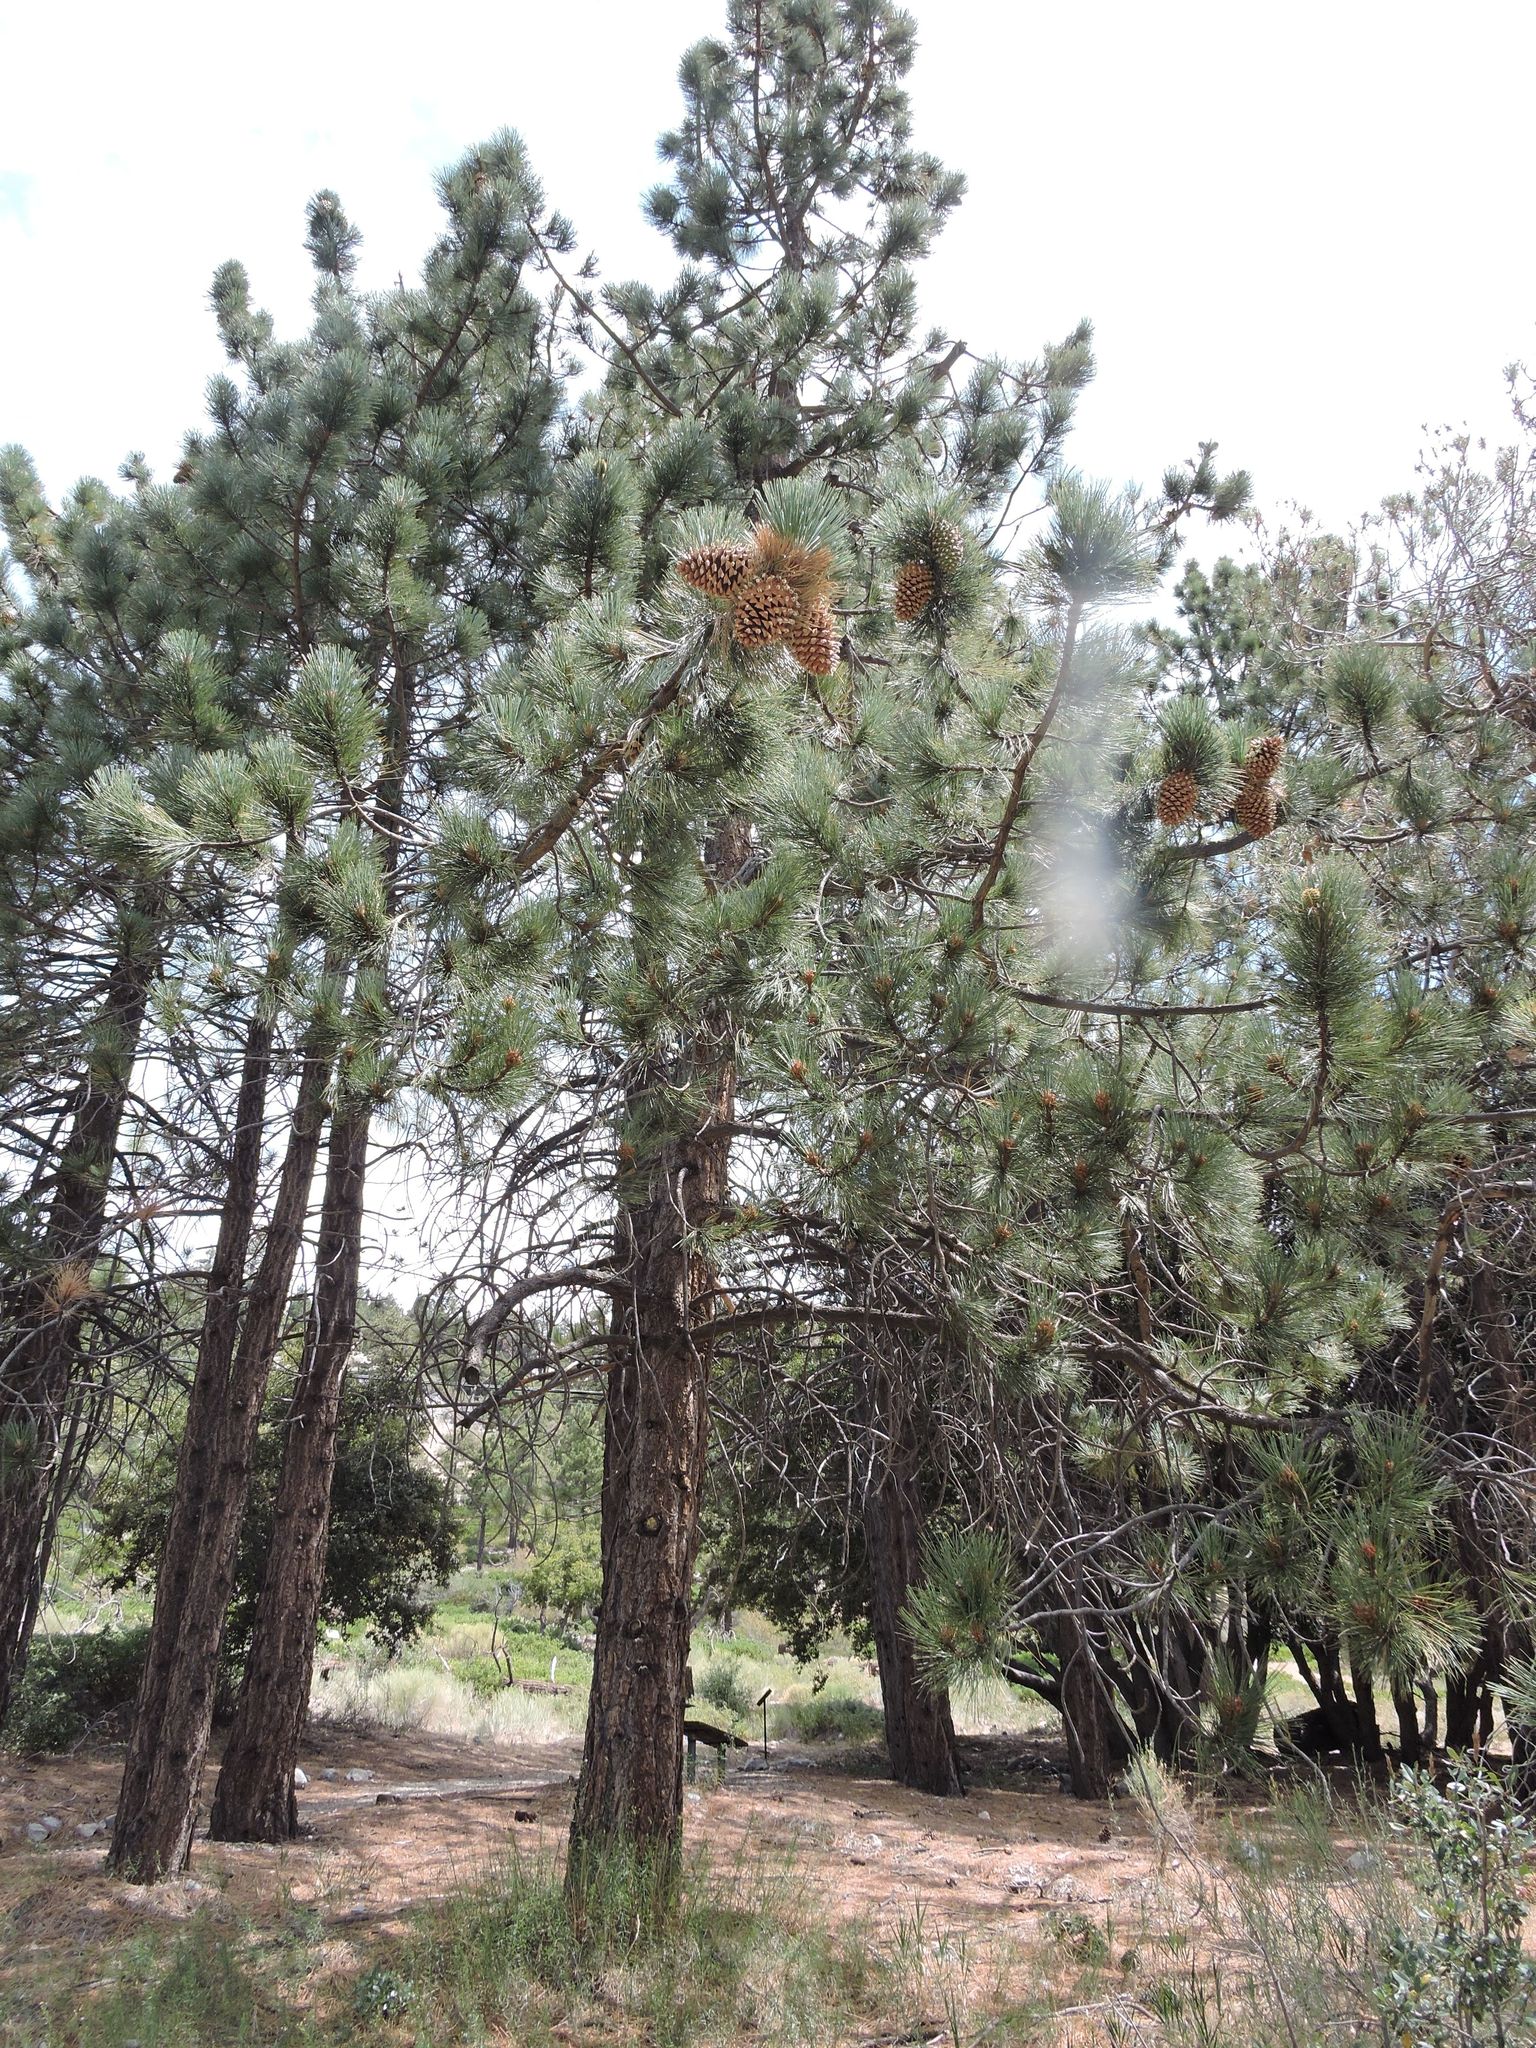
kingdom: Plantae
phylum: Tracheophyta
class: Pinopsida
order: Pinales
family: Pinaceae
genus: Pinus
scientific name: Pinus coulteri
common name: Coulter pine
